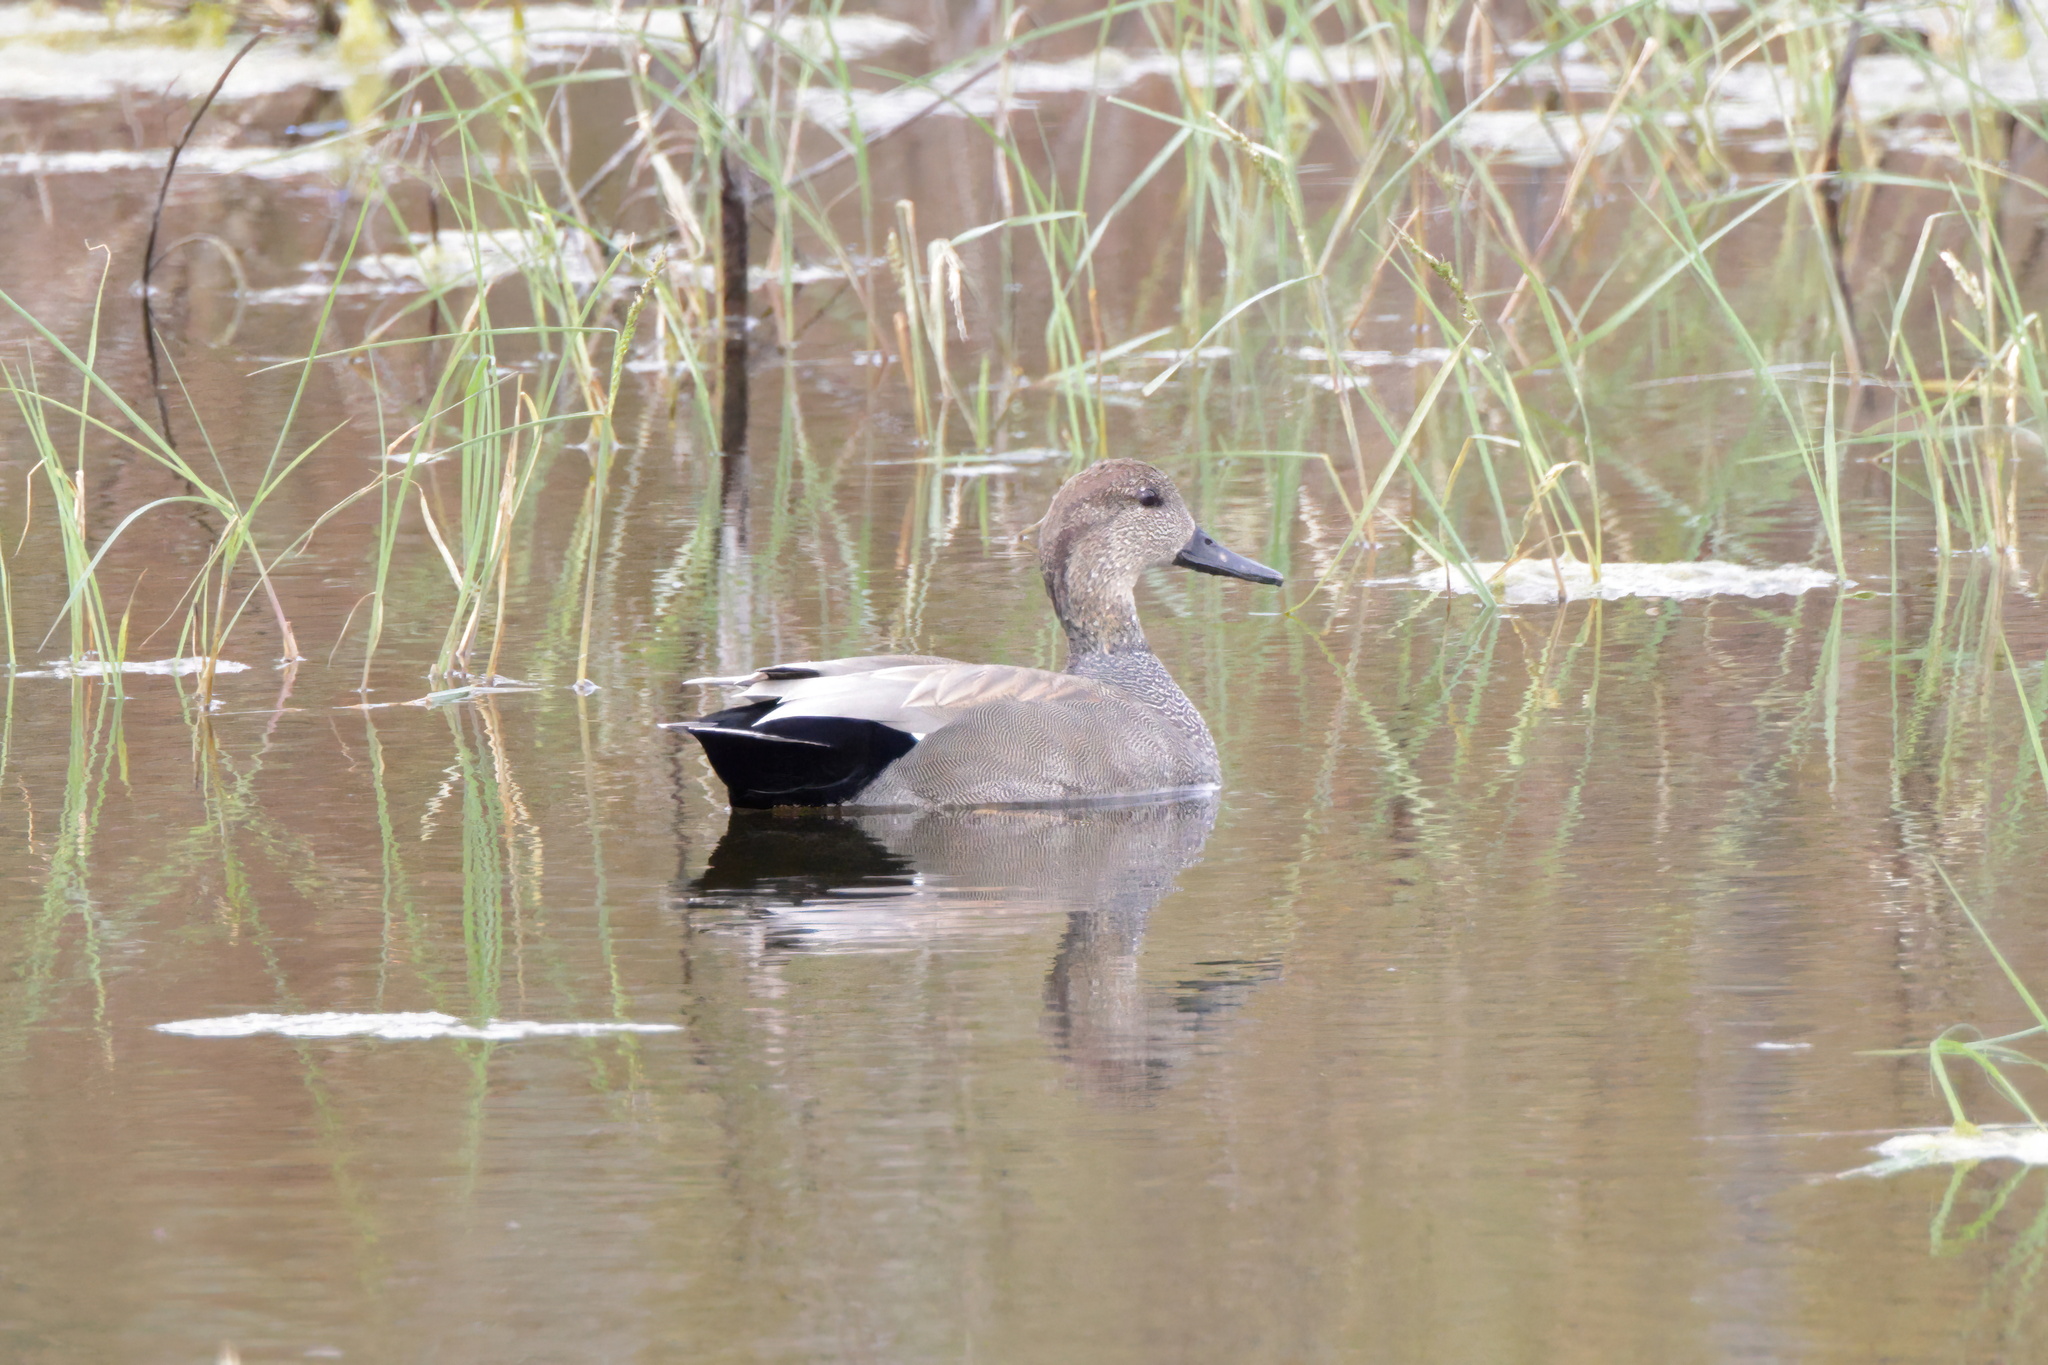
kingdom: Animalia
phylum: Chordata
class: Aves
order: Anseriformes
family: Anatidae
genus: Mareca
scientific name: Mareca strepera
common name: Gadwall
